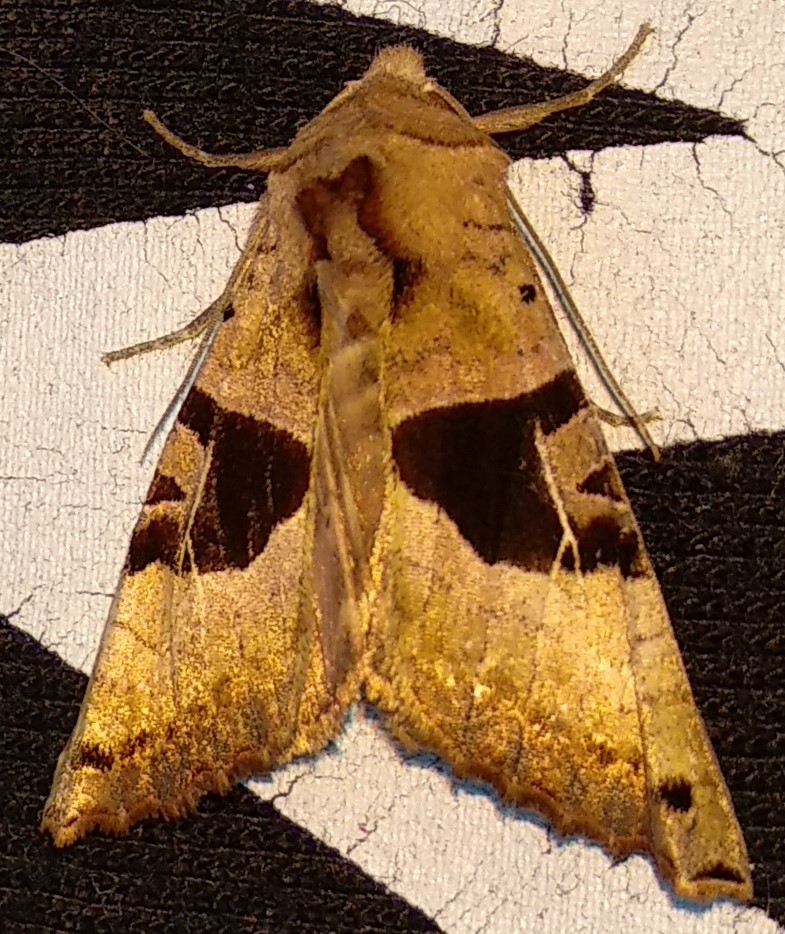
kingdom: Animalia
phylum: Arthropoda
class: Insecta
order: Lepidoptera
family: Noctuidae
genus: Phlogophora
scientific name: Phlogophora periculosa
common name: Brown angle shades
